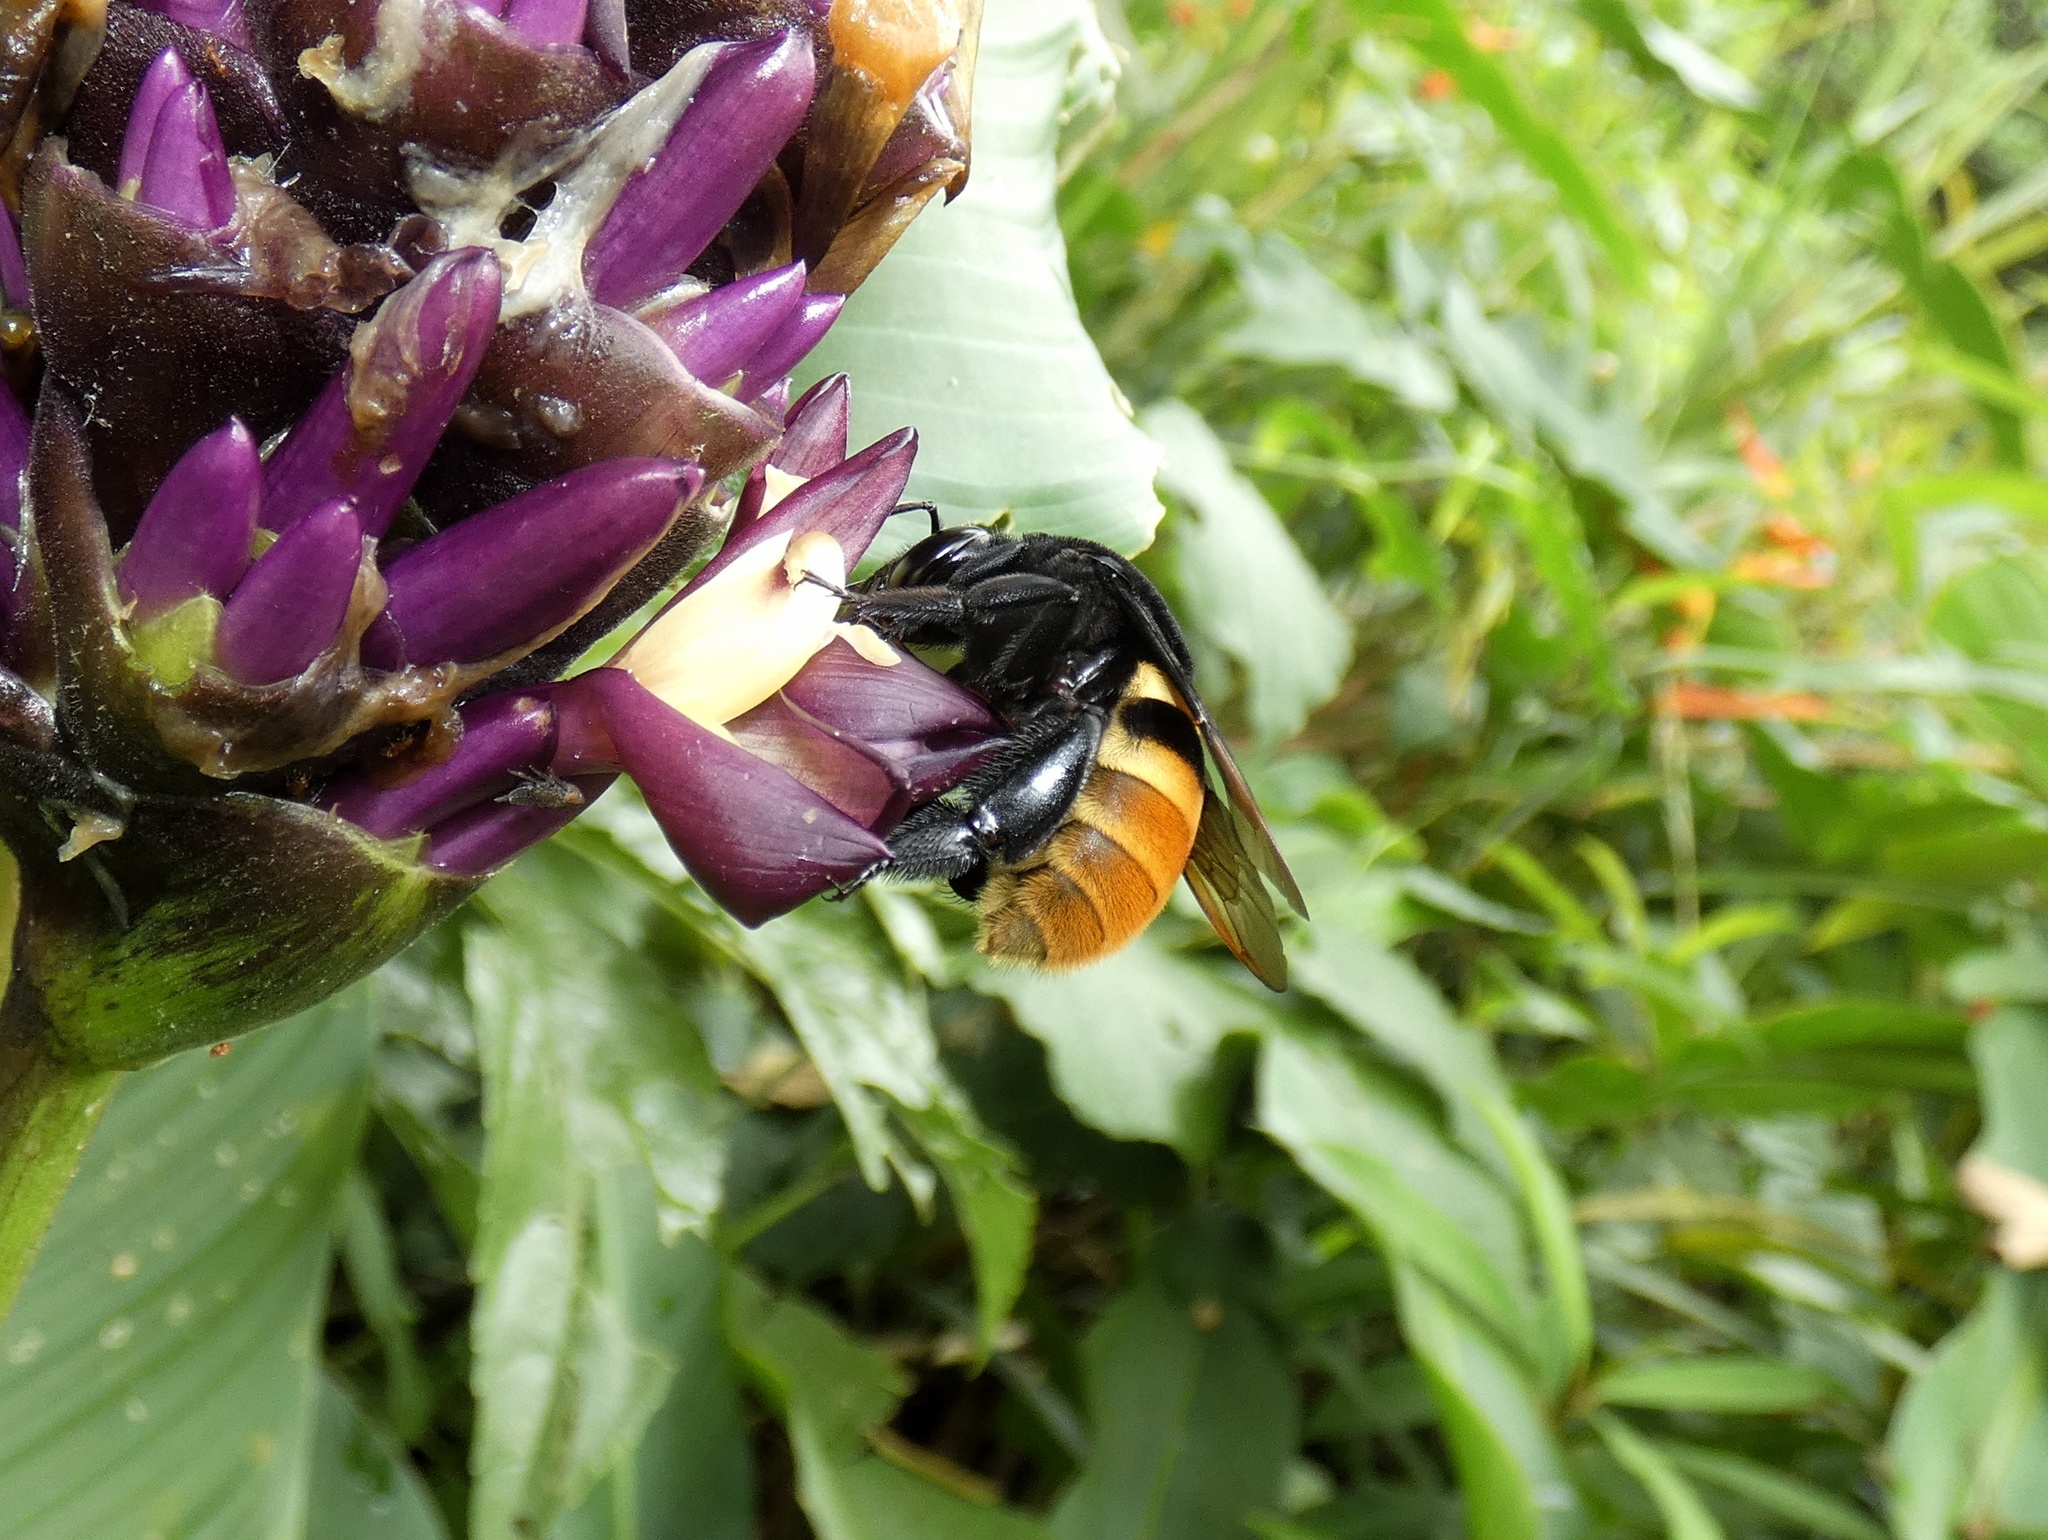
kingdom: Animalia
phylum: Arthropoda
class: Insecta
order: Hymenoptera
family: Apidae
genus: Eulaema
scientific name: Eulaema cingulata
